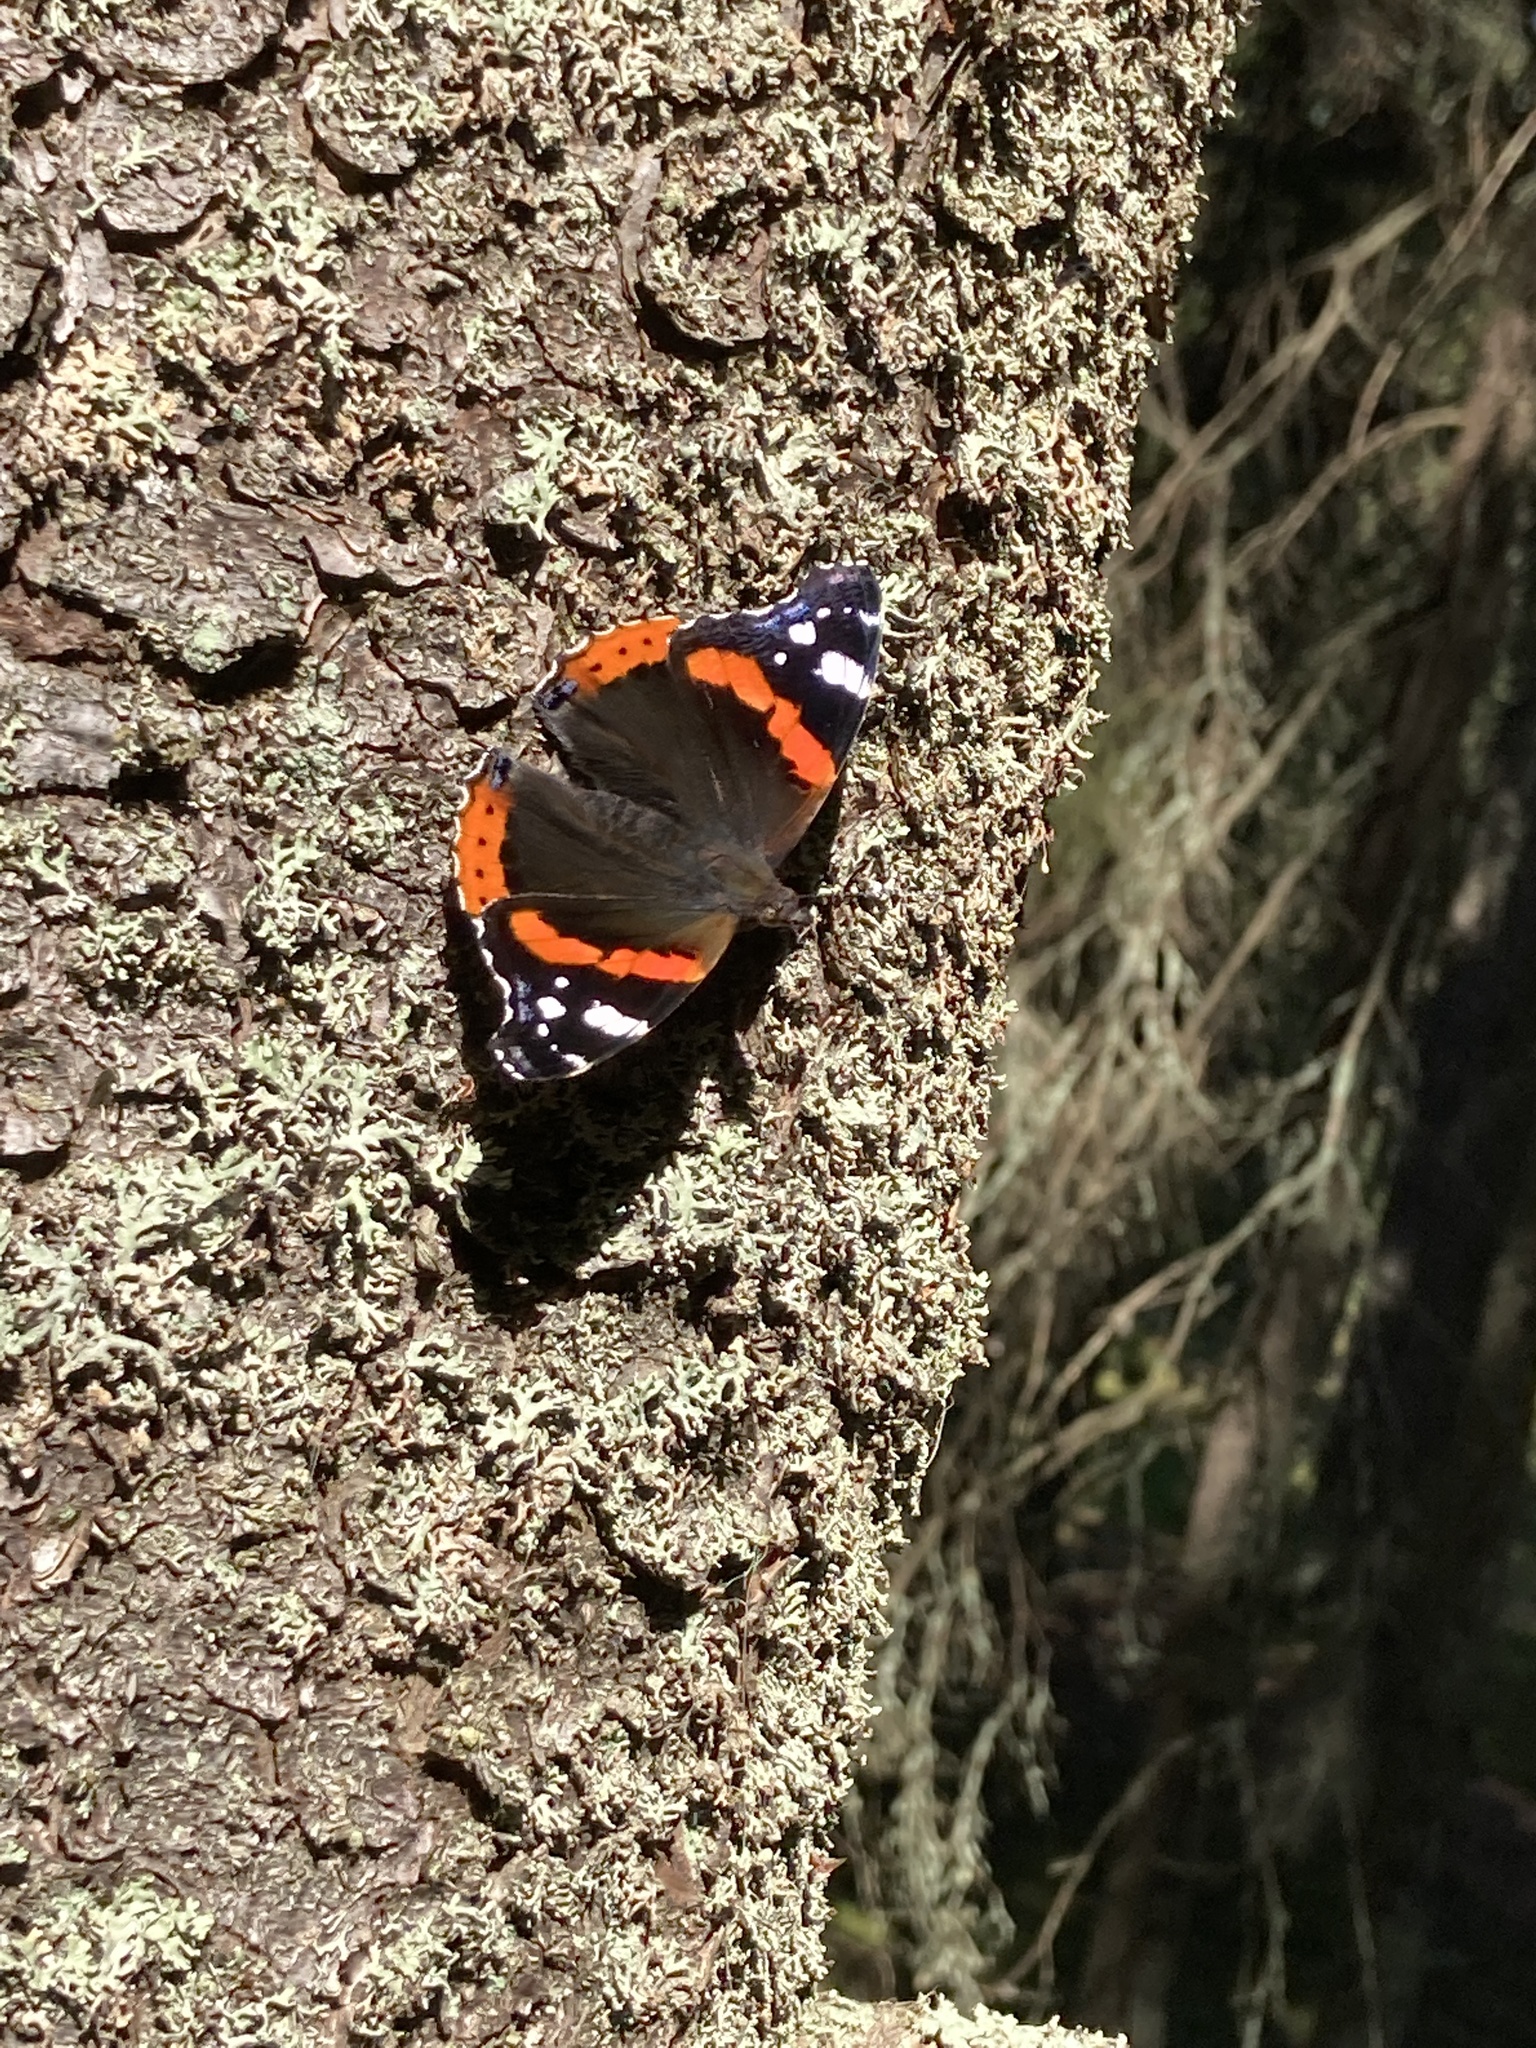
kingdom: Animalia
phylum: Arthropoda
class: Insecta
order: Lepidoptera
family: Nymphalidae
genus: Vanessa
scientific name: Vanessa atalanta
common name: Red admiral
